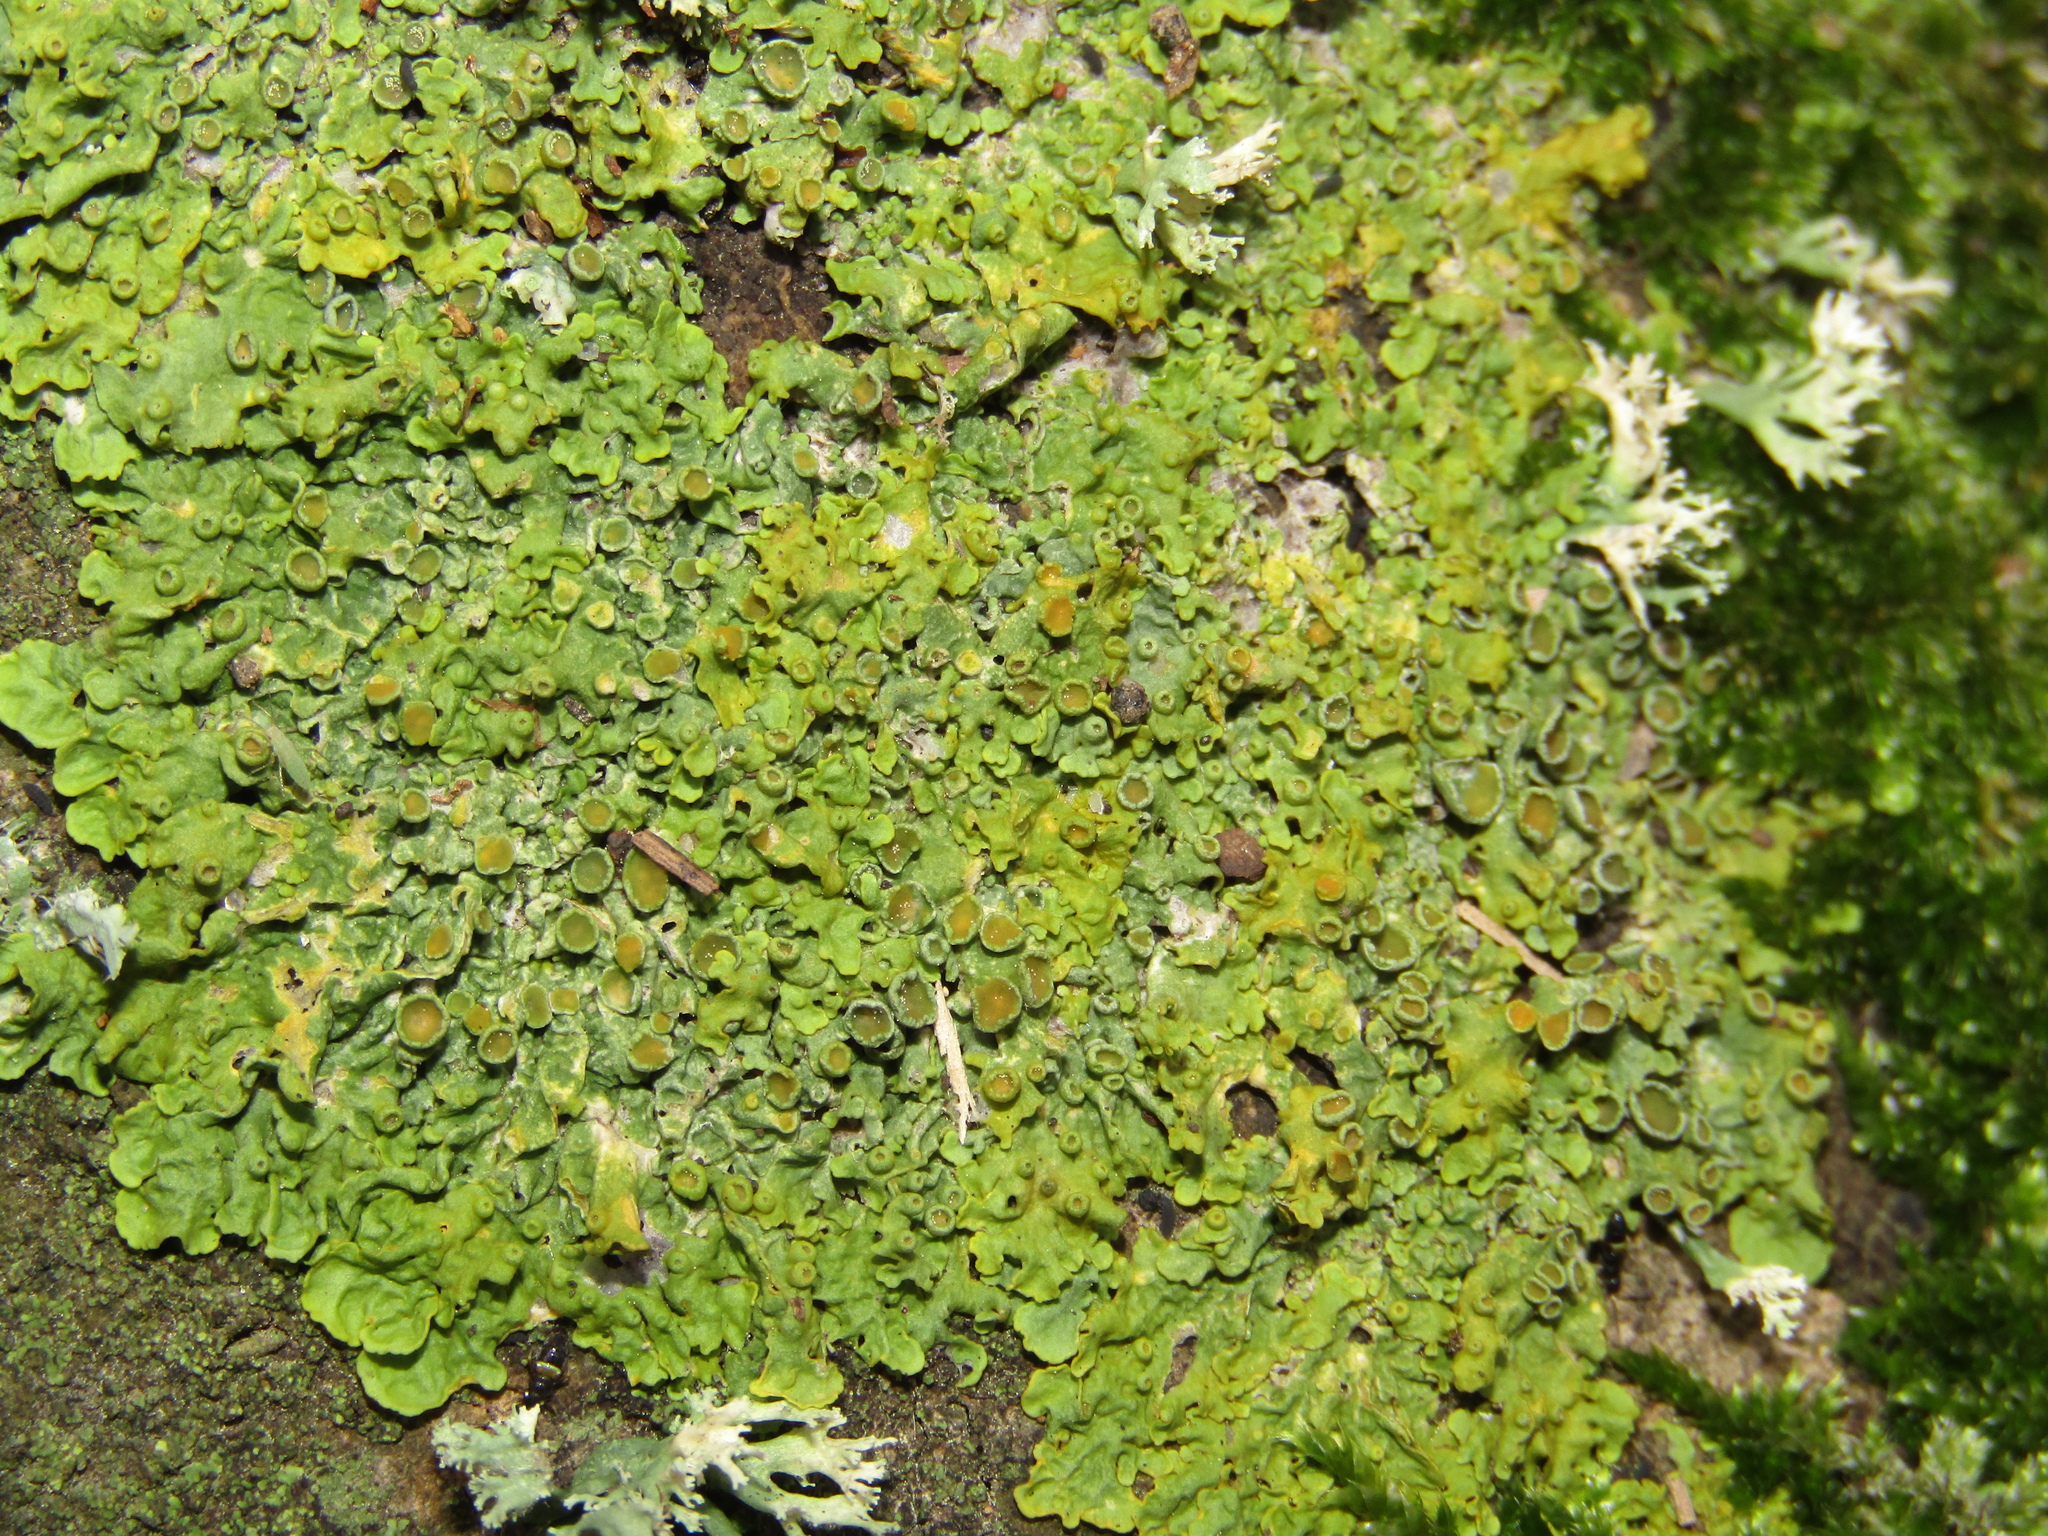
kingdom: Fungi
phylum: Ascomycota
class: Lecanoromycetes
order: Teloschistales
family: Teloschistaceae
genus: Xanthoria
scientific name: Xanthoria parietina
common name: Common orange lichen
